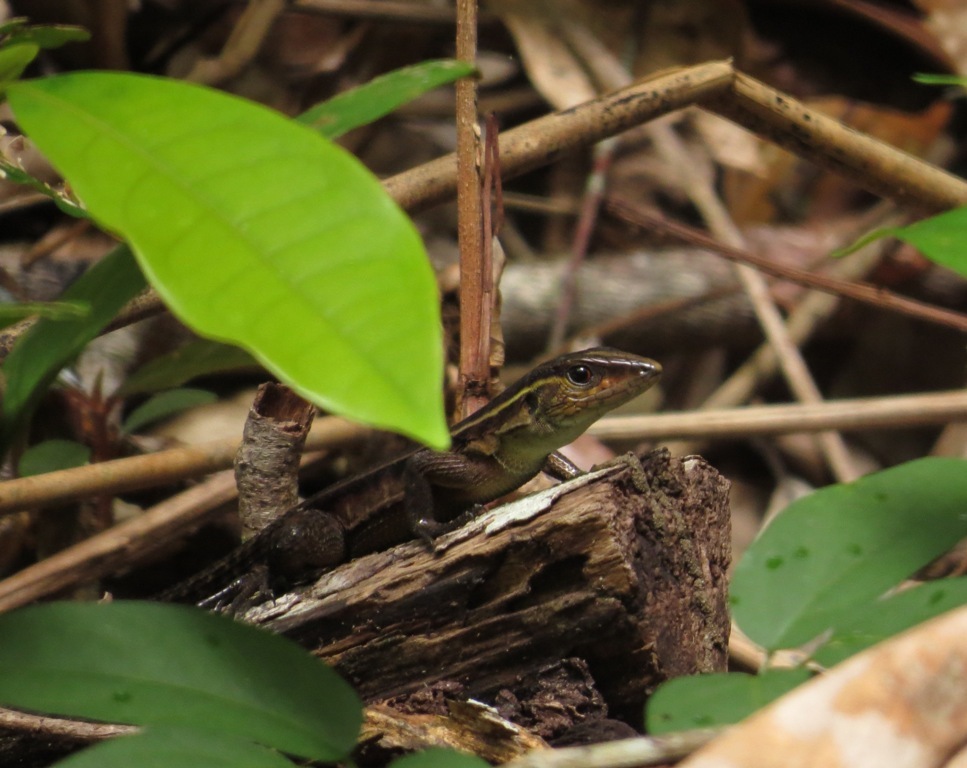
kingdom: Animalia
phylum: Chordata
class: Squamata
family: Teiidae
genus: Kentropyx
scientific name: Kentropyx calcarata
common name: Striped forest whiptail
